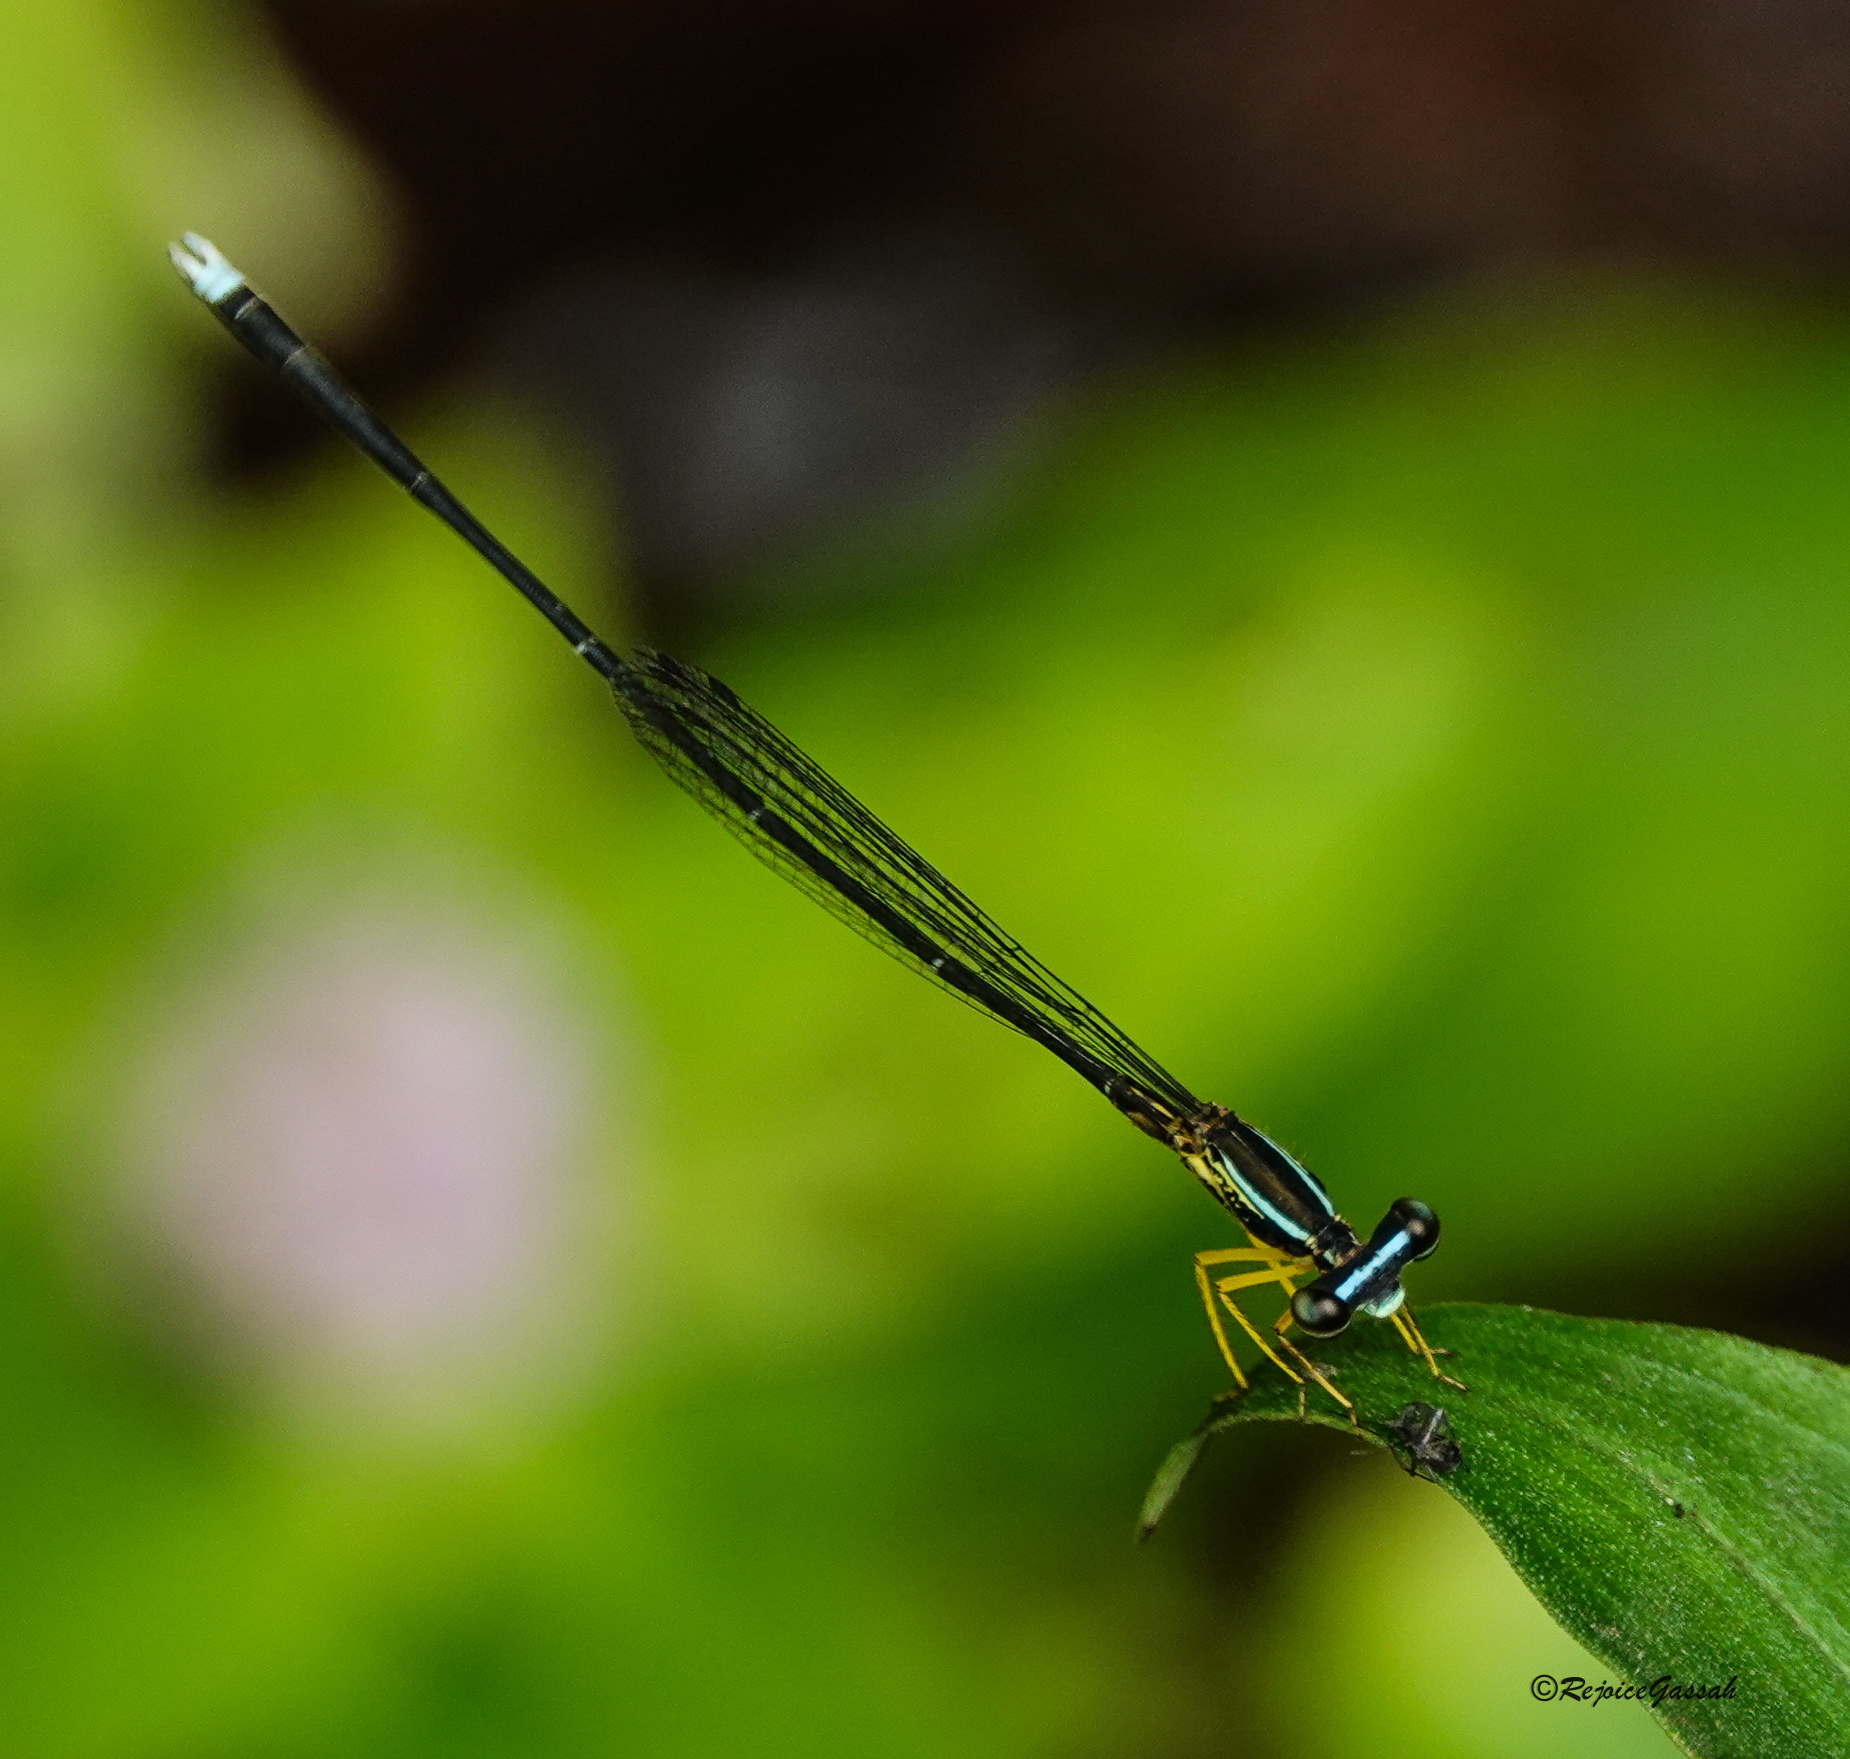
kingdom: Animalia
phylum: Arthropoda
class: Insecta
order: Odonata
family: Platycnemididae
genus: Copera
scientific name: Copera vittata
